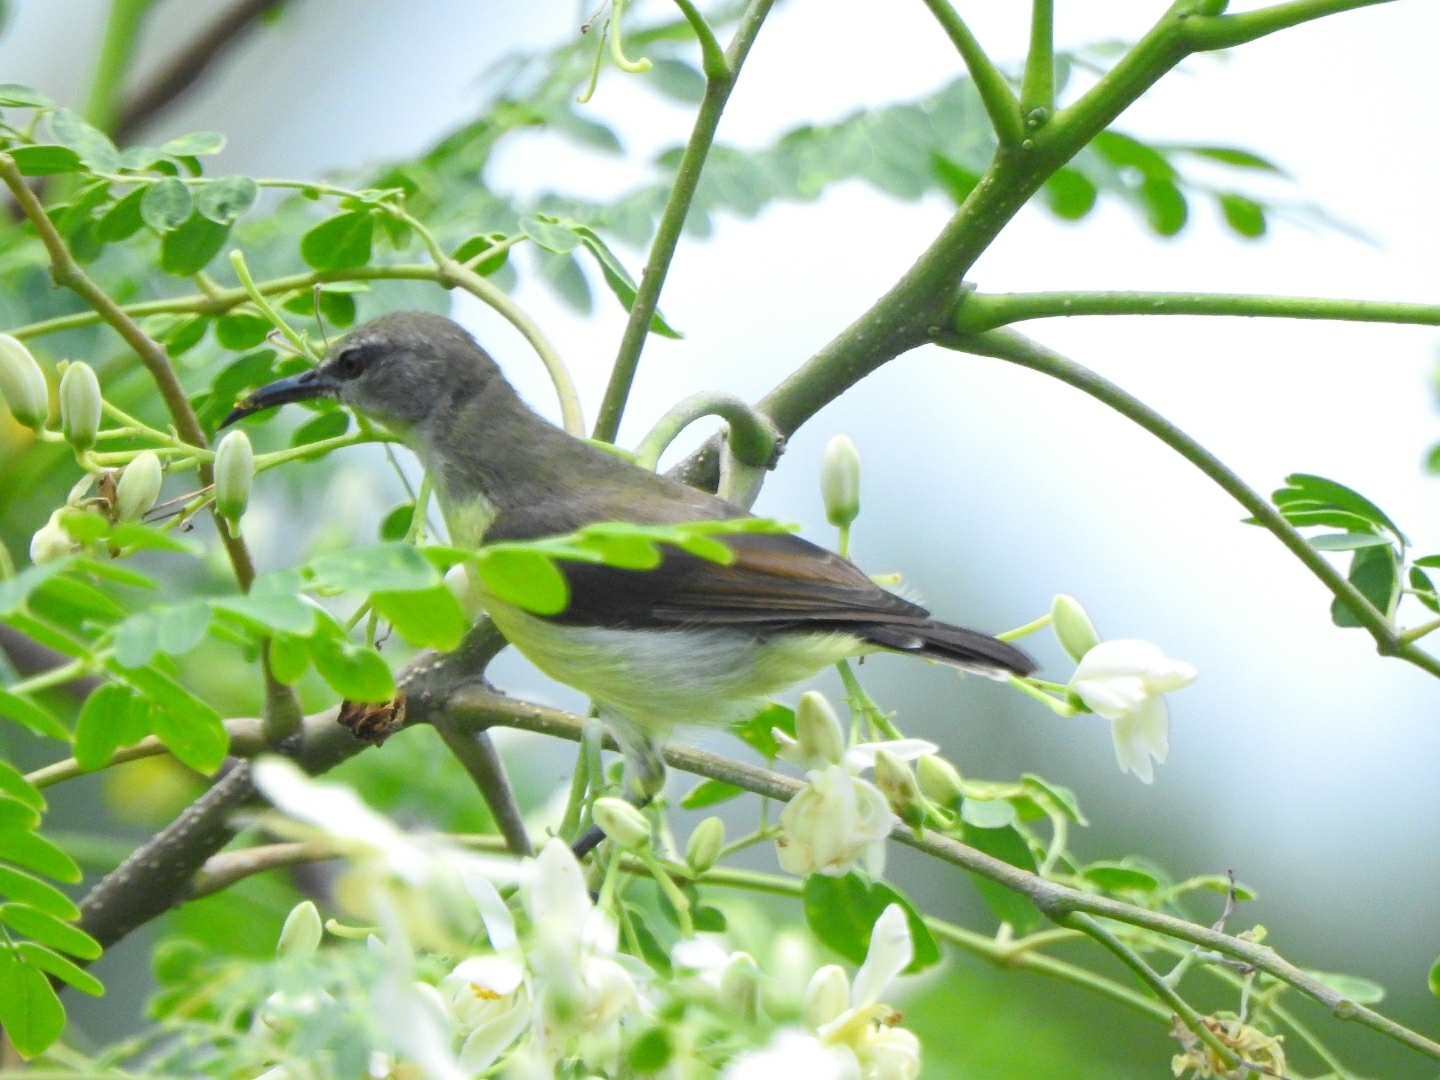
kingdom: Animalia
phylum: Chordata
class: Aves
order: Passeriformes
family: Nectariniidae
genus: Leptocoma
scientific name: Leptocoma zeylonica
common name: Purple-rumped sunbird
